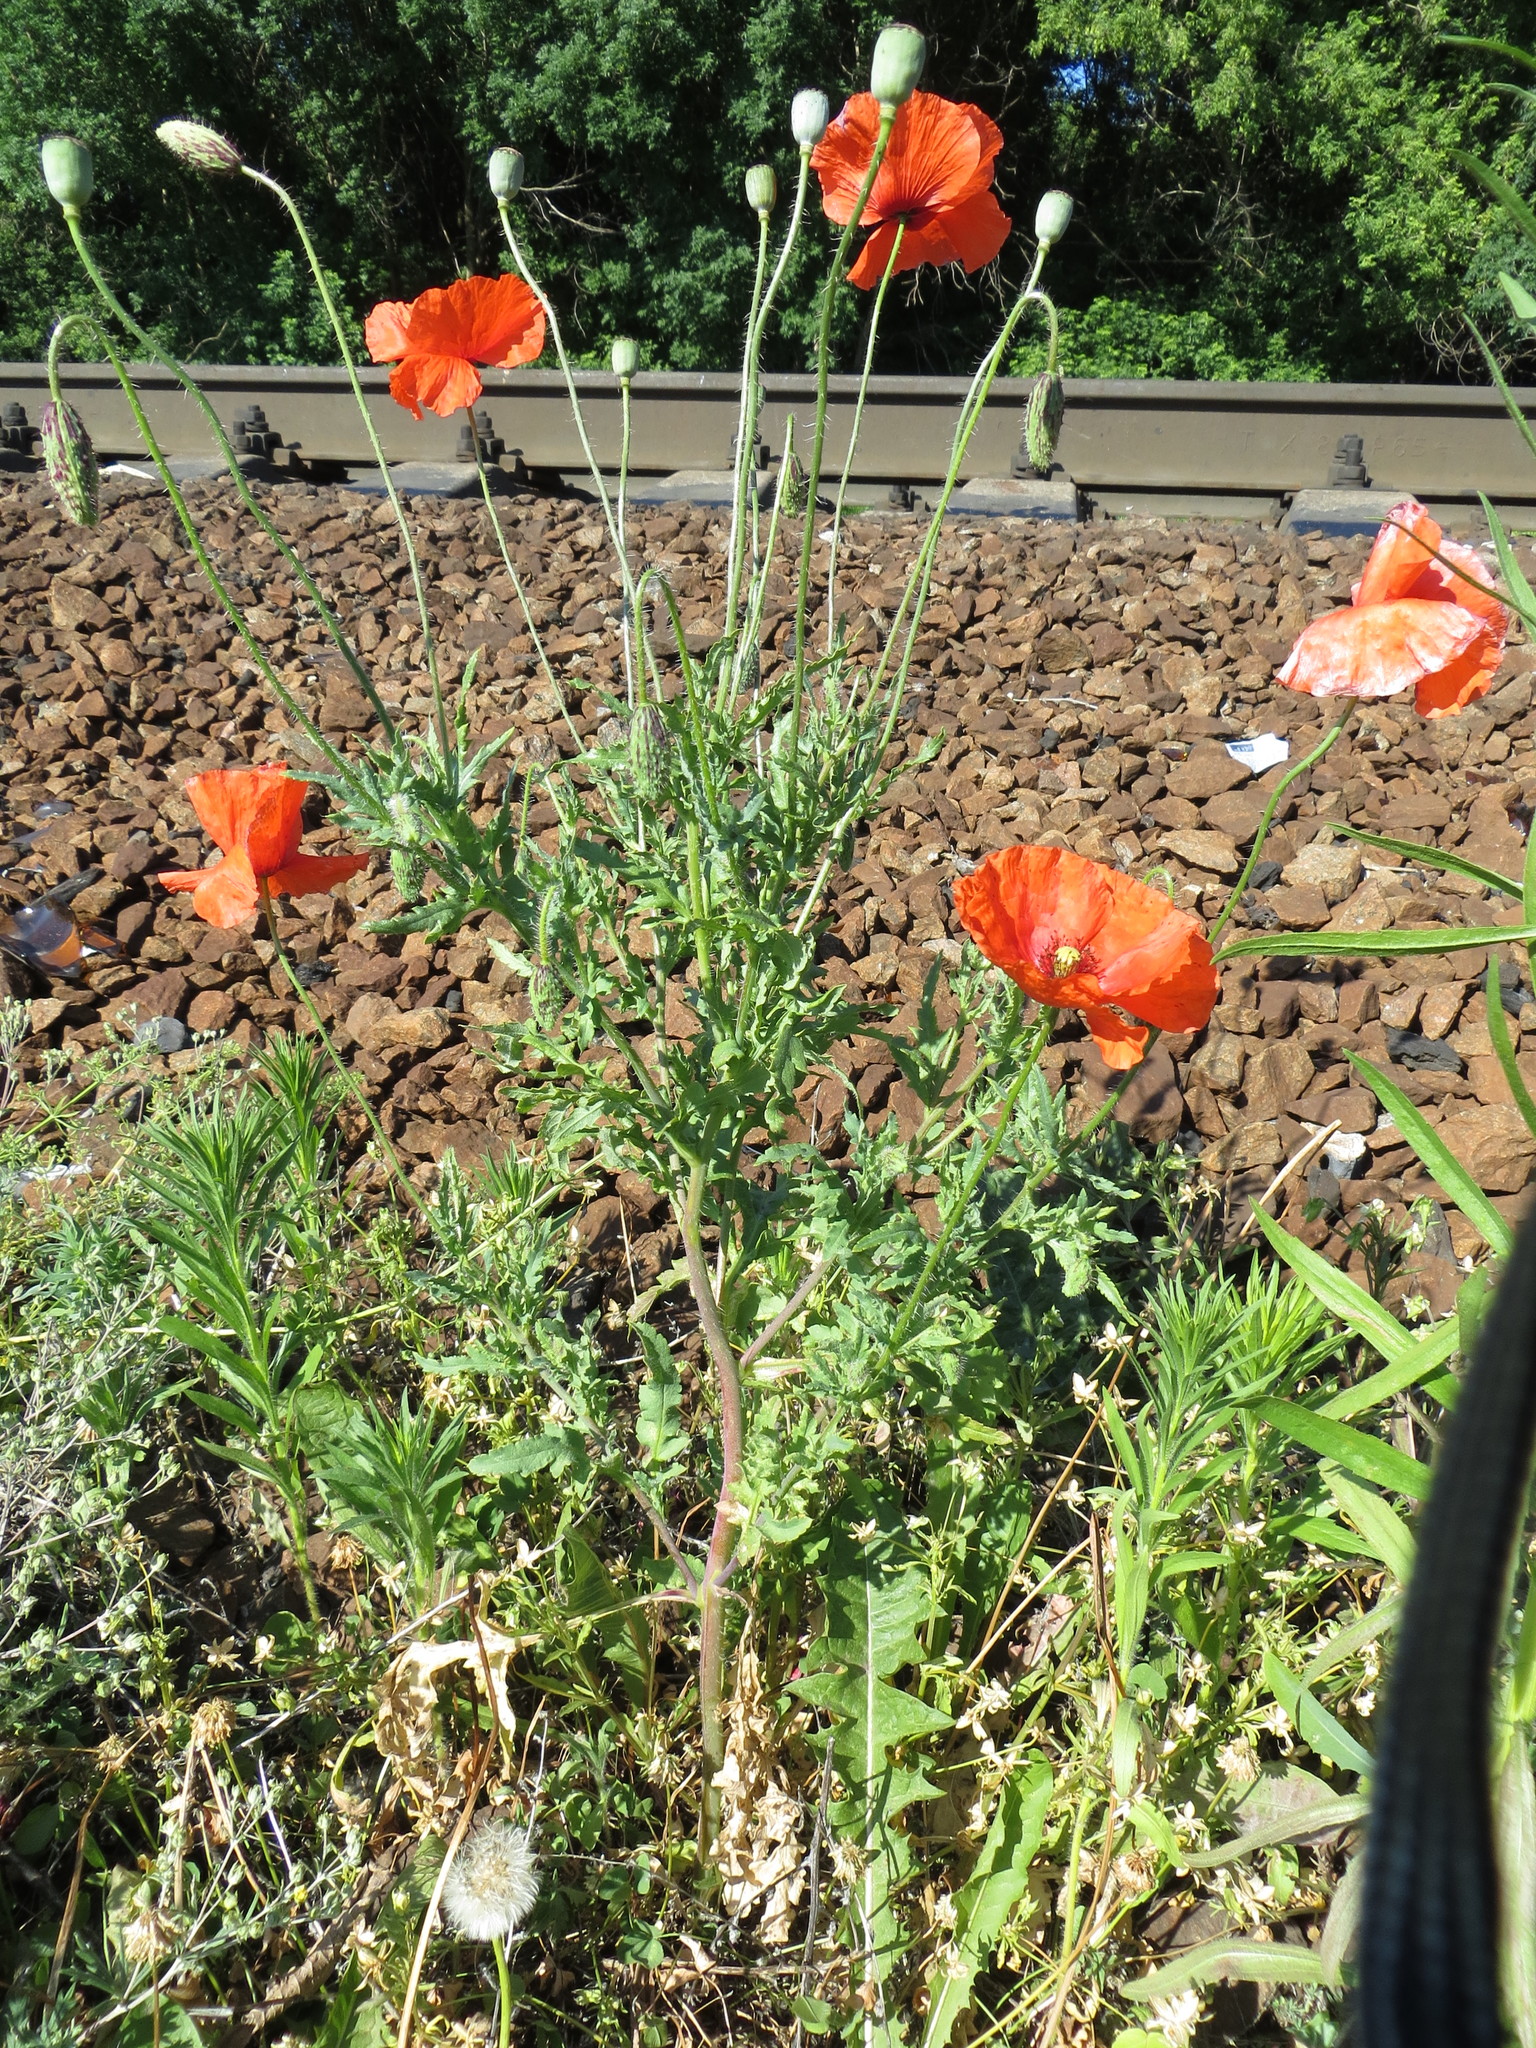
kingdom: Plantae
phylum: Tracheophyta
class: Magnoliopsida
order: Ranunculales
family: Papaveraceae
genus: Papaver
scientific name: Papaver rhoeas
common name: Corn poppy
